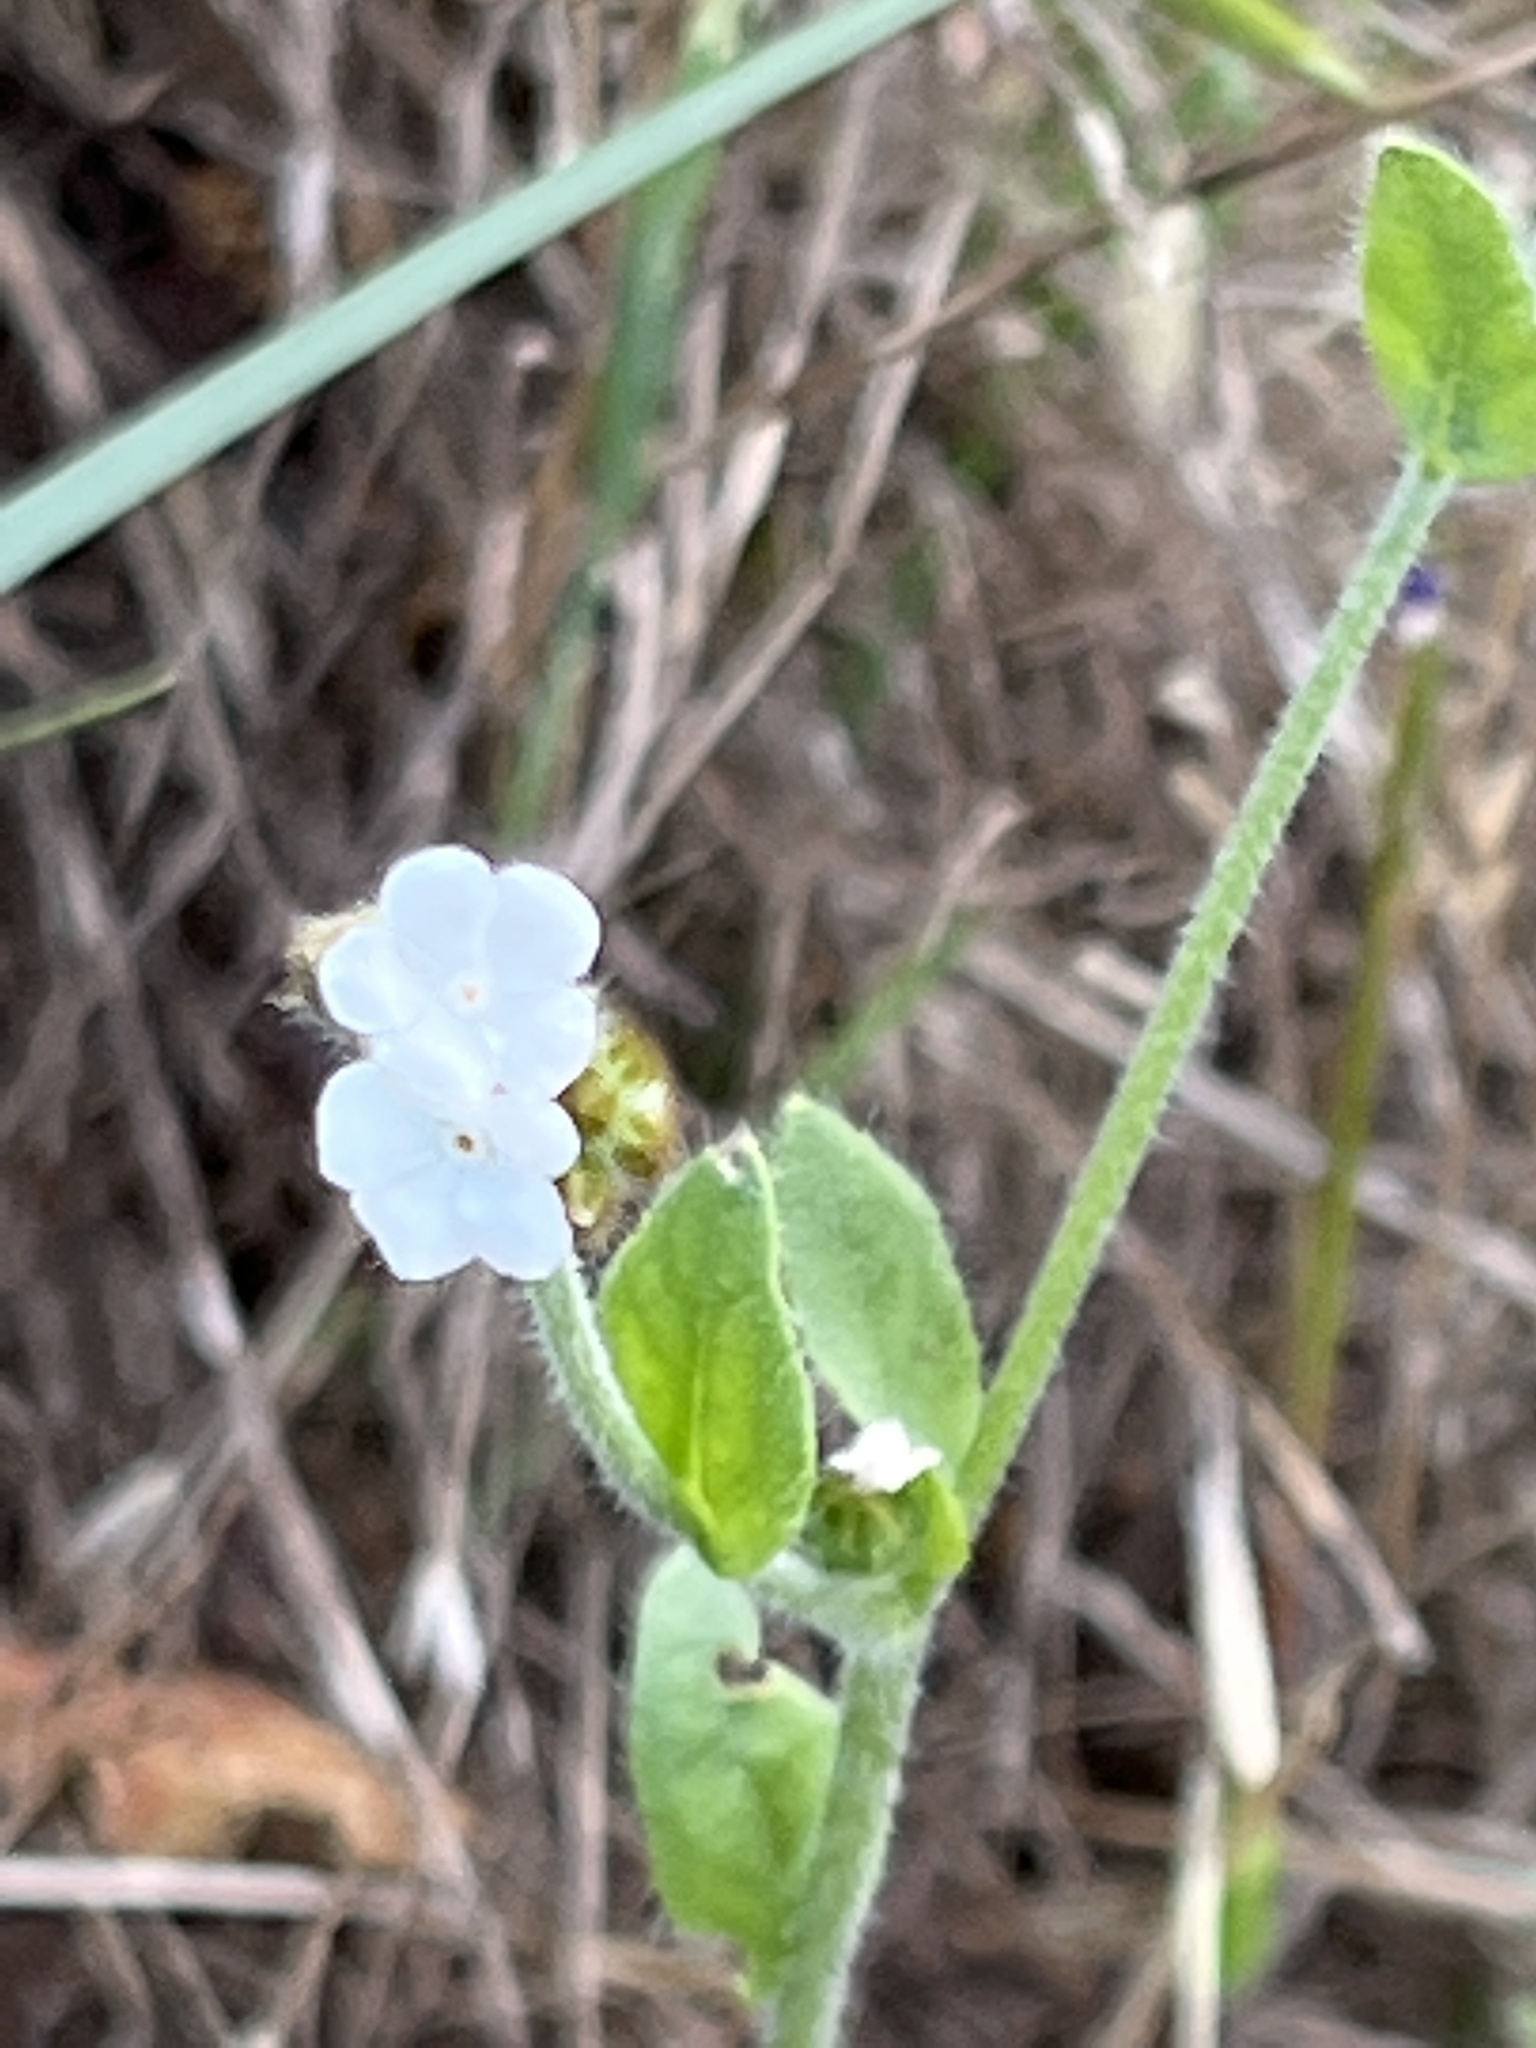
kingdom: Plantae
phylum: Tracheophyta
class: Magnoliopsida
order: Boraginales
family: Boraginaceae
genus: Plagiobothrys
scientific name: Plagiobothrys nothofulvus
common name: Popcorn-flower
